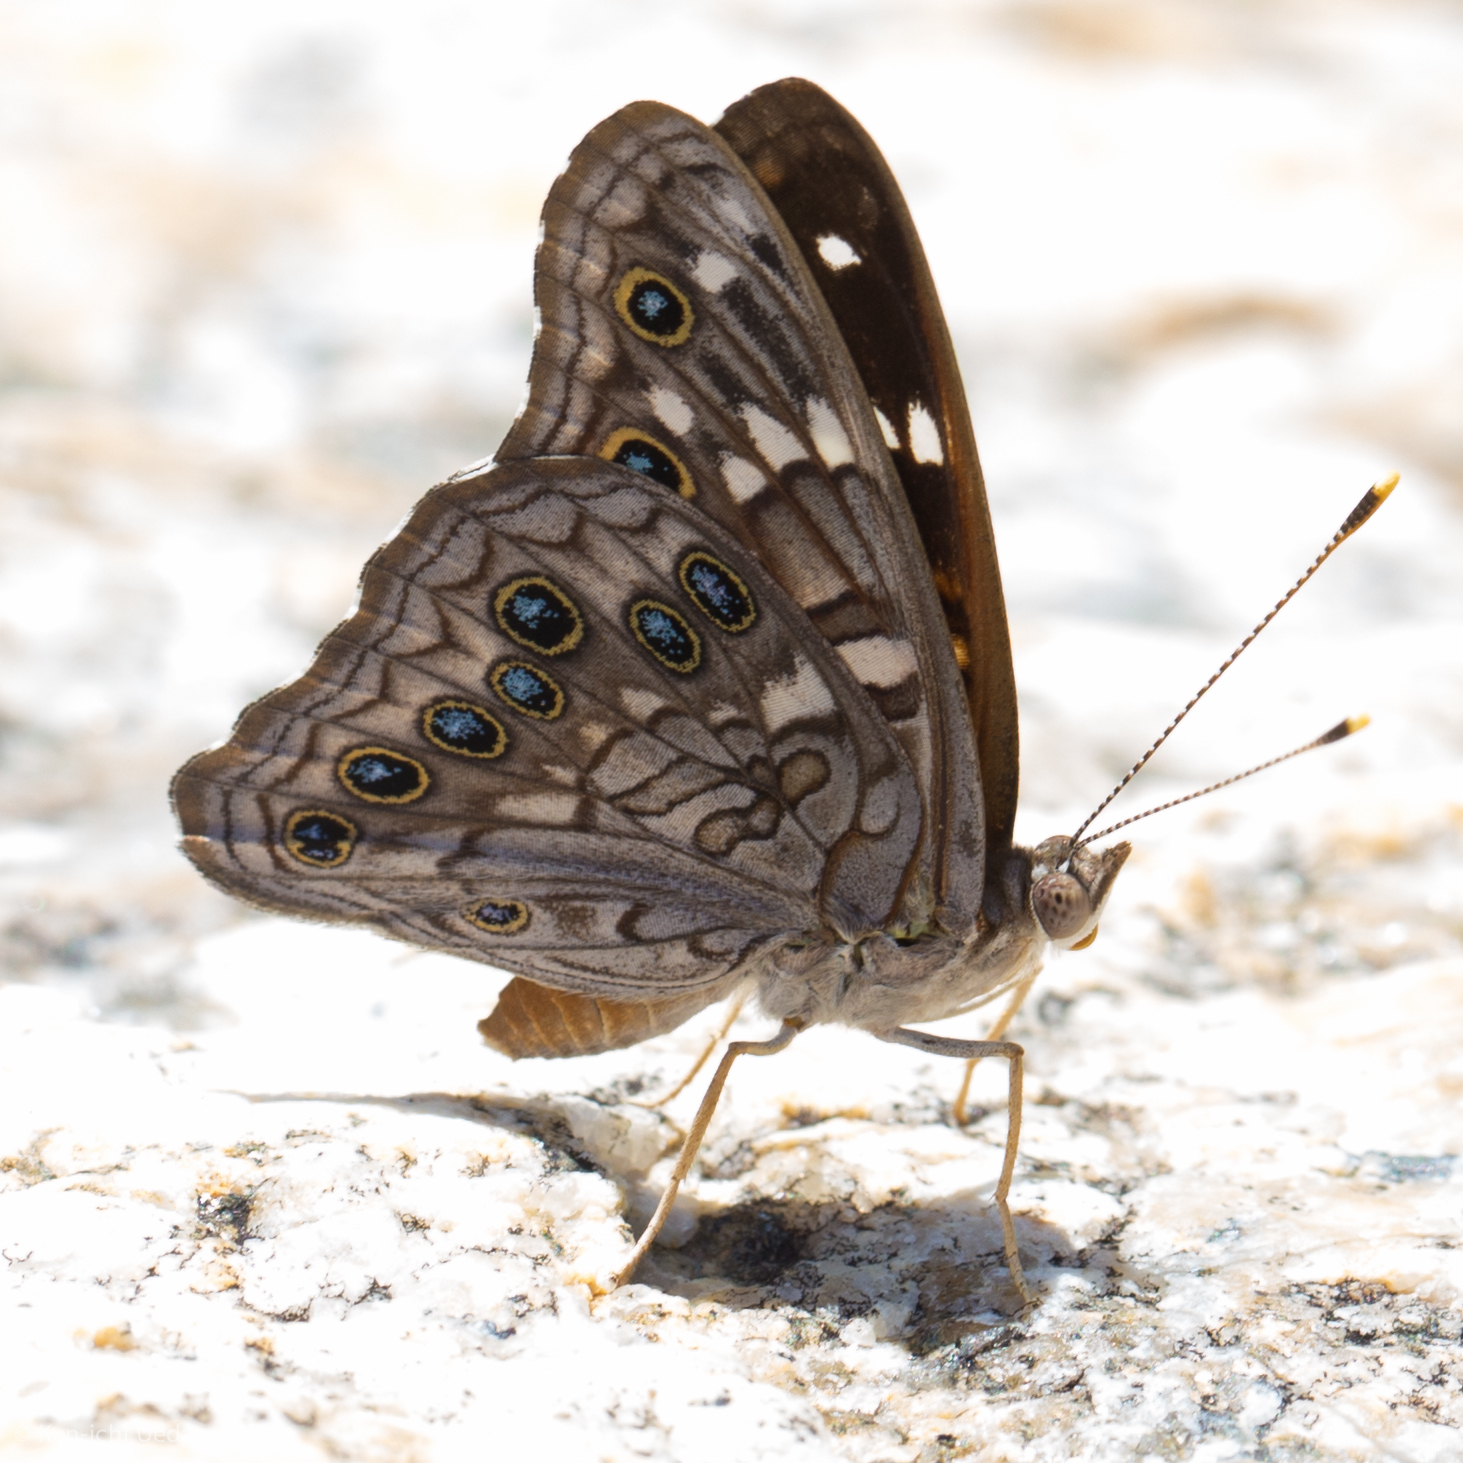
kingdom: Animalia
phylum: Arthropoda
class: Insecta
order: Lepidoptera
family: Nymphalidae
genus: Asterocampa
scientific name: Asterocampa leilia
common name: Empress leilia
